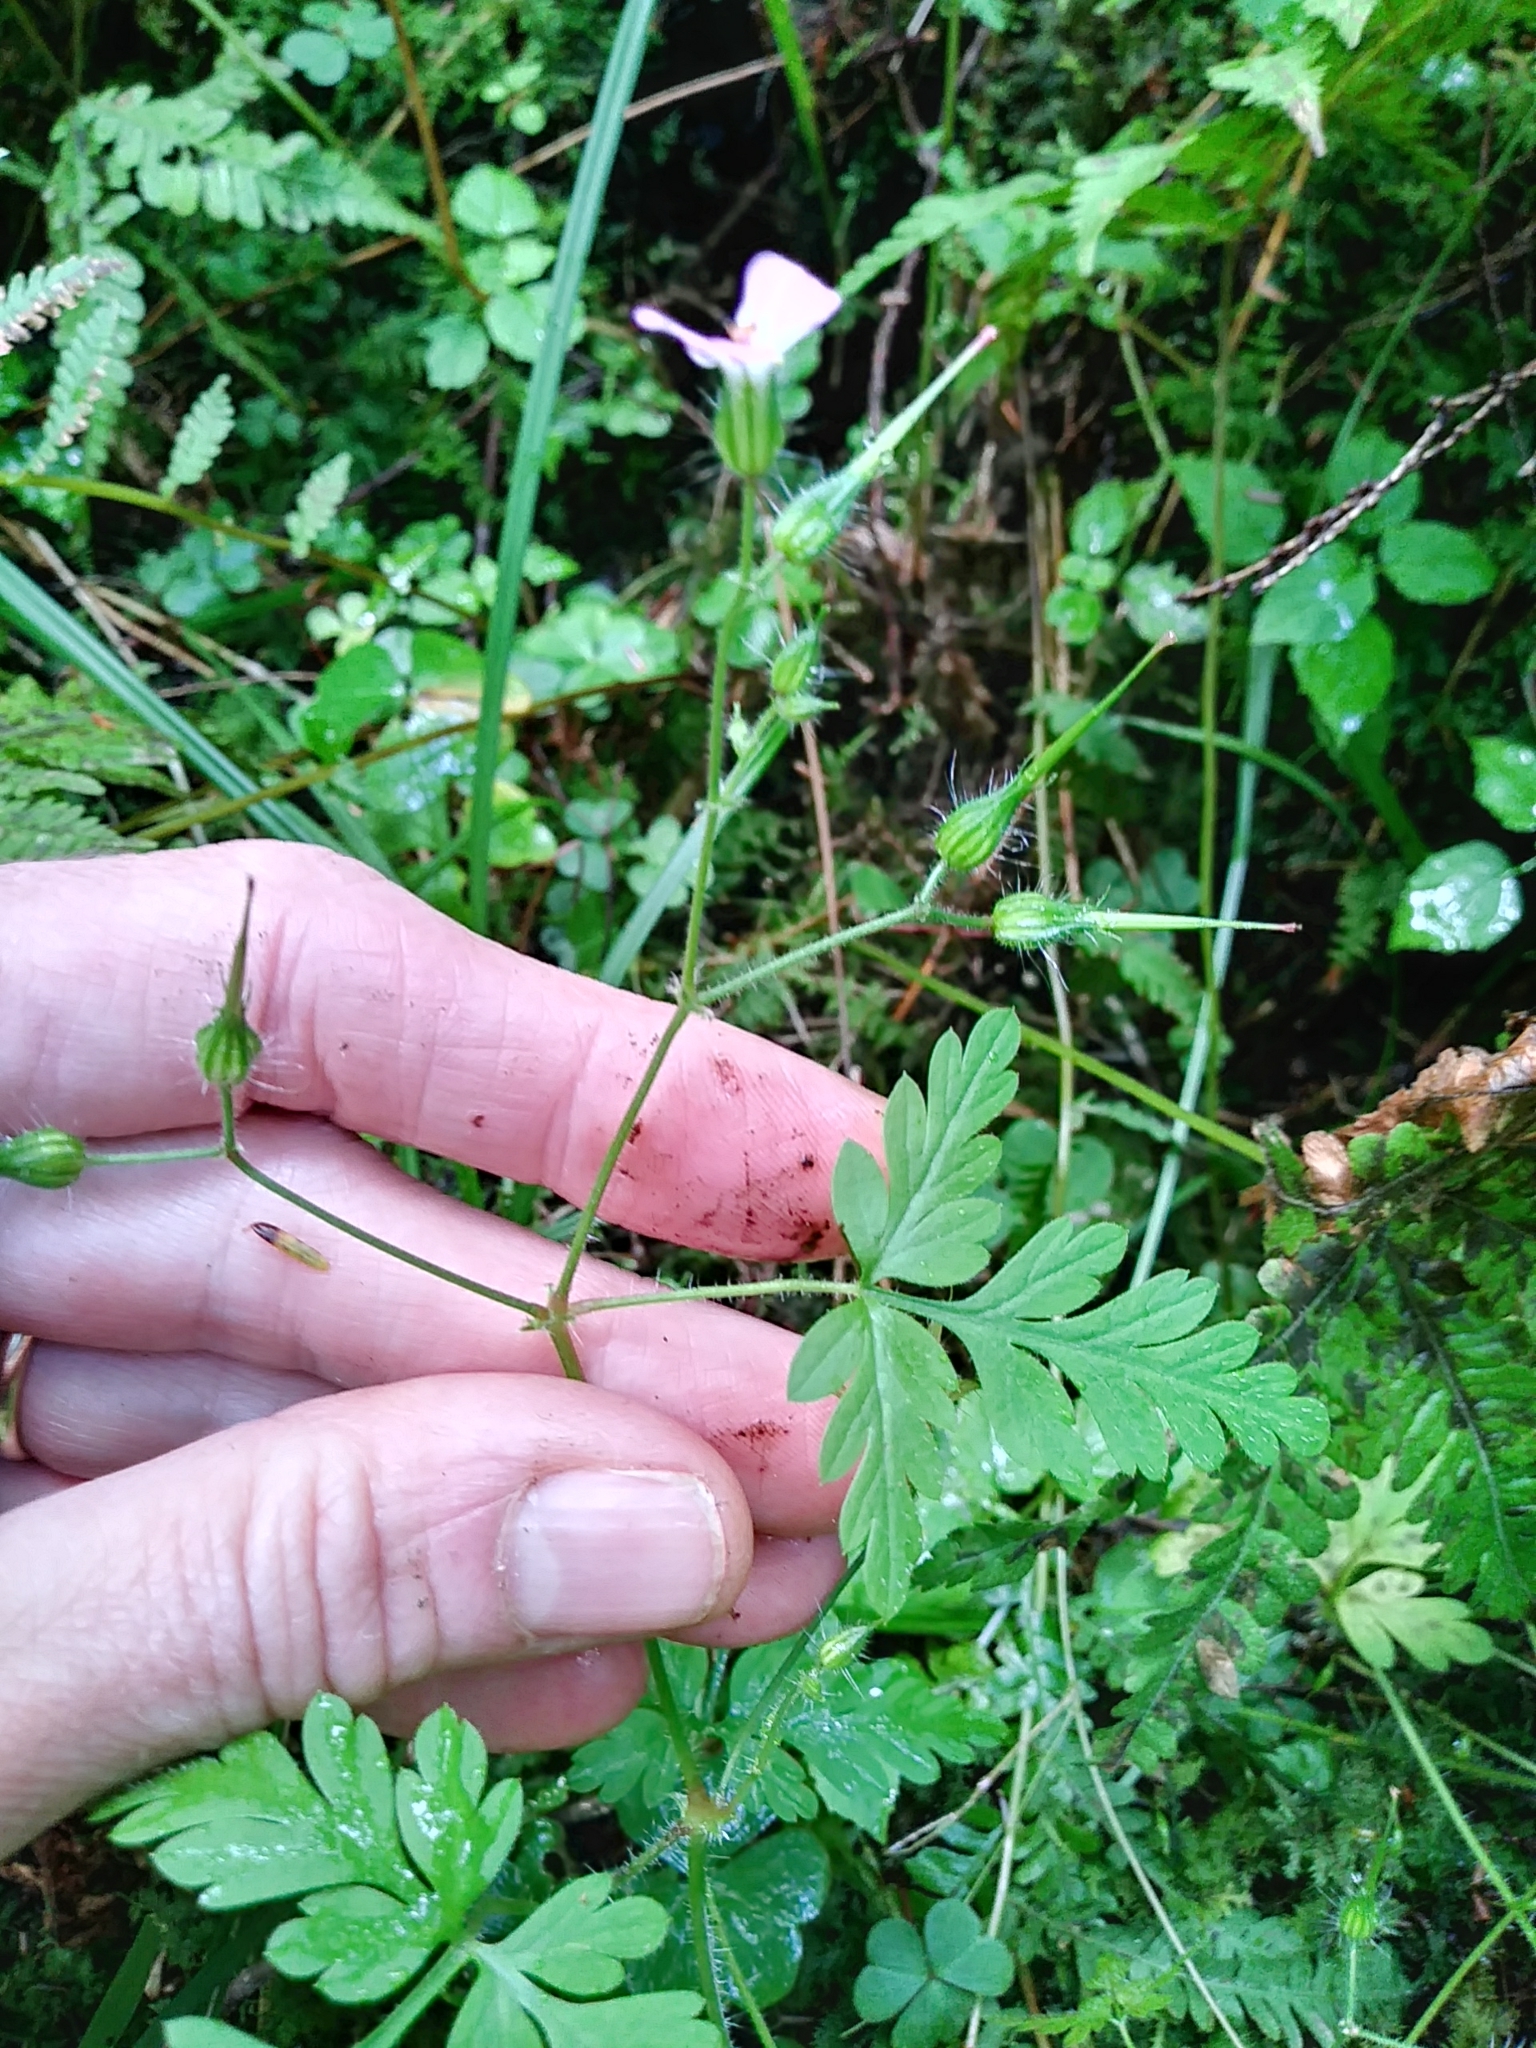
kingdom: Plantae
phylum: Tracheophyta
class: Magnoliopsida
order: Geraniales
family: Geraniaceae
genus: Geranium
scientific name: Geranium robertianum
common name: Herb-robert
